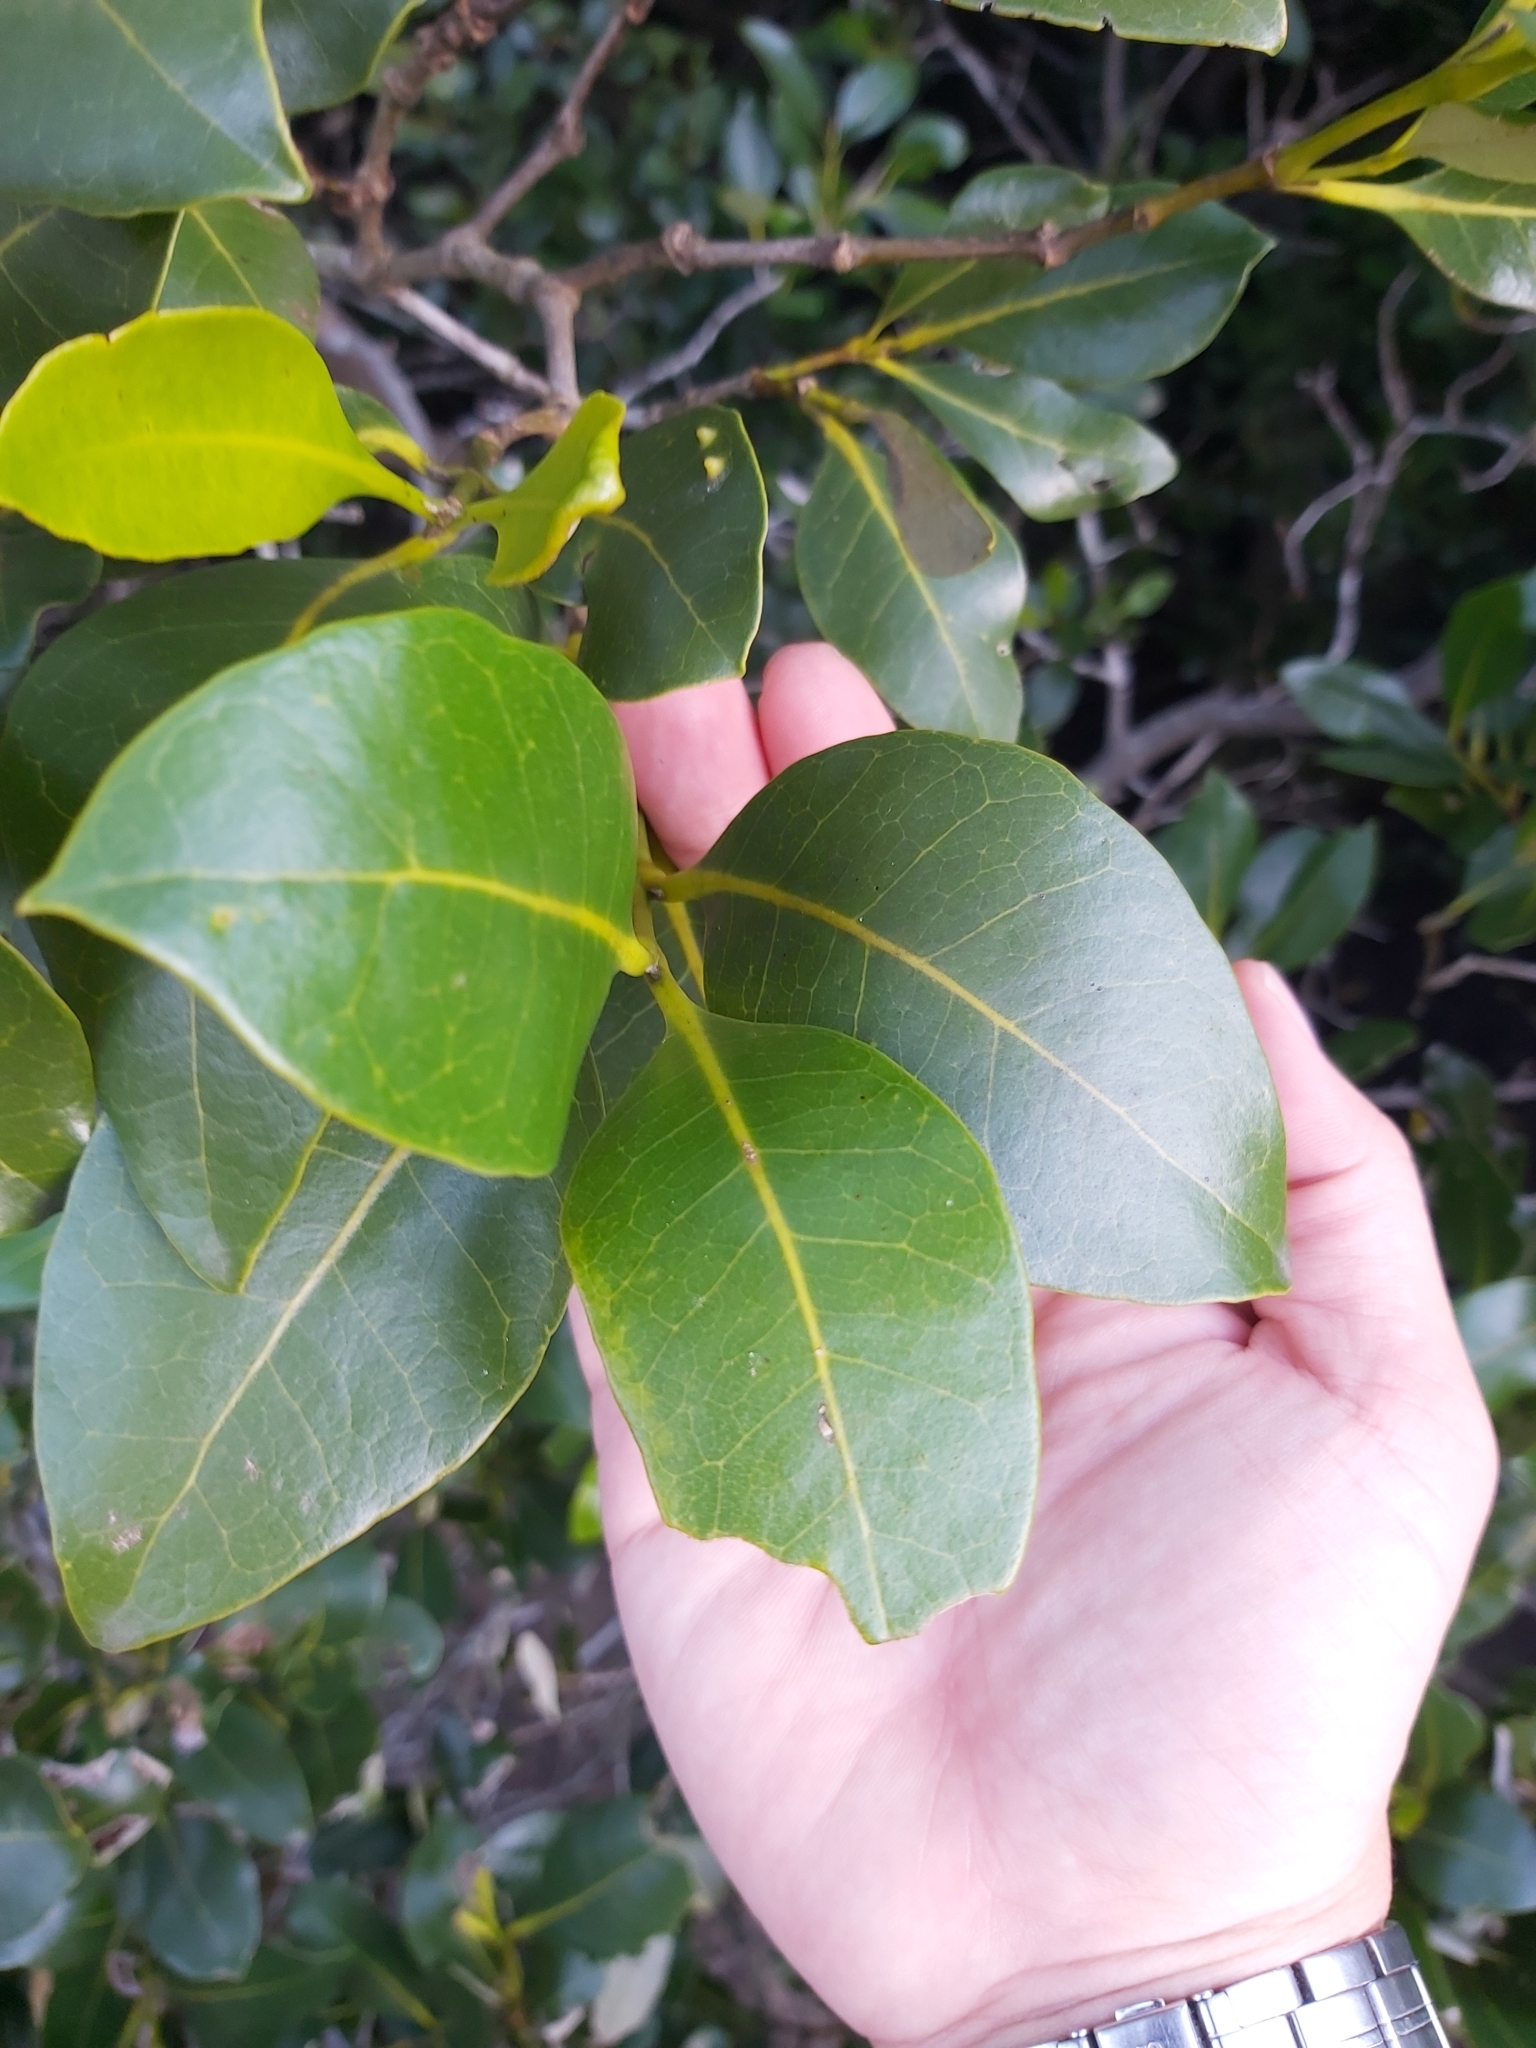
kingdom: Plantae
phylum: Tracheophyta
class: Magnoliopsida
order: Lamiales
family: Acanthaceae
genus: Avicennia
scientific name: Avicennia marina
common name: Gray mangrove
